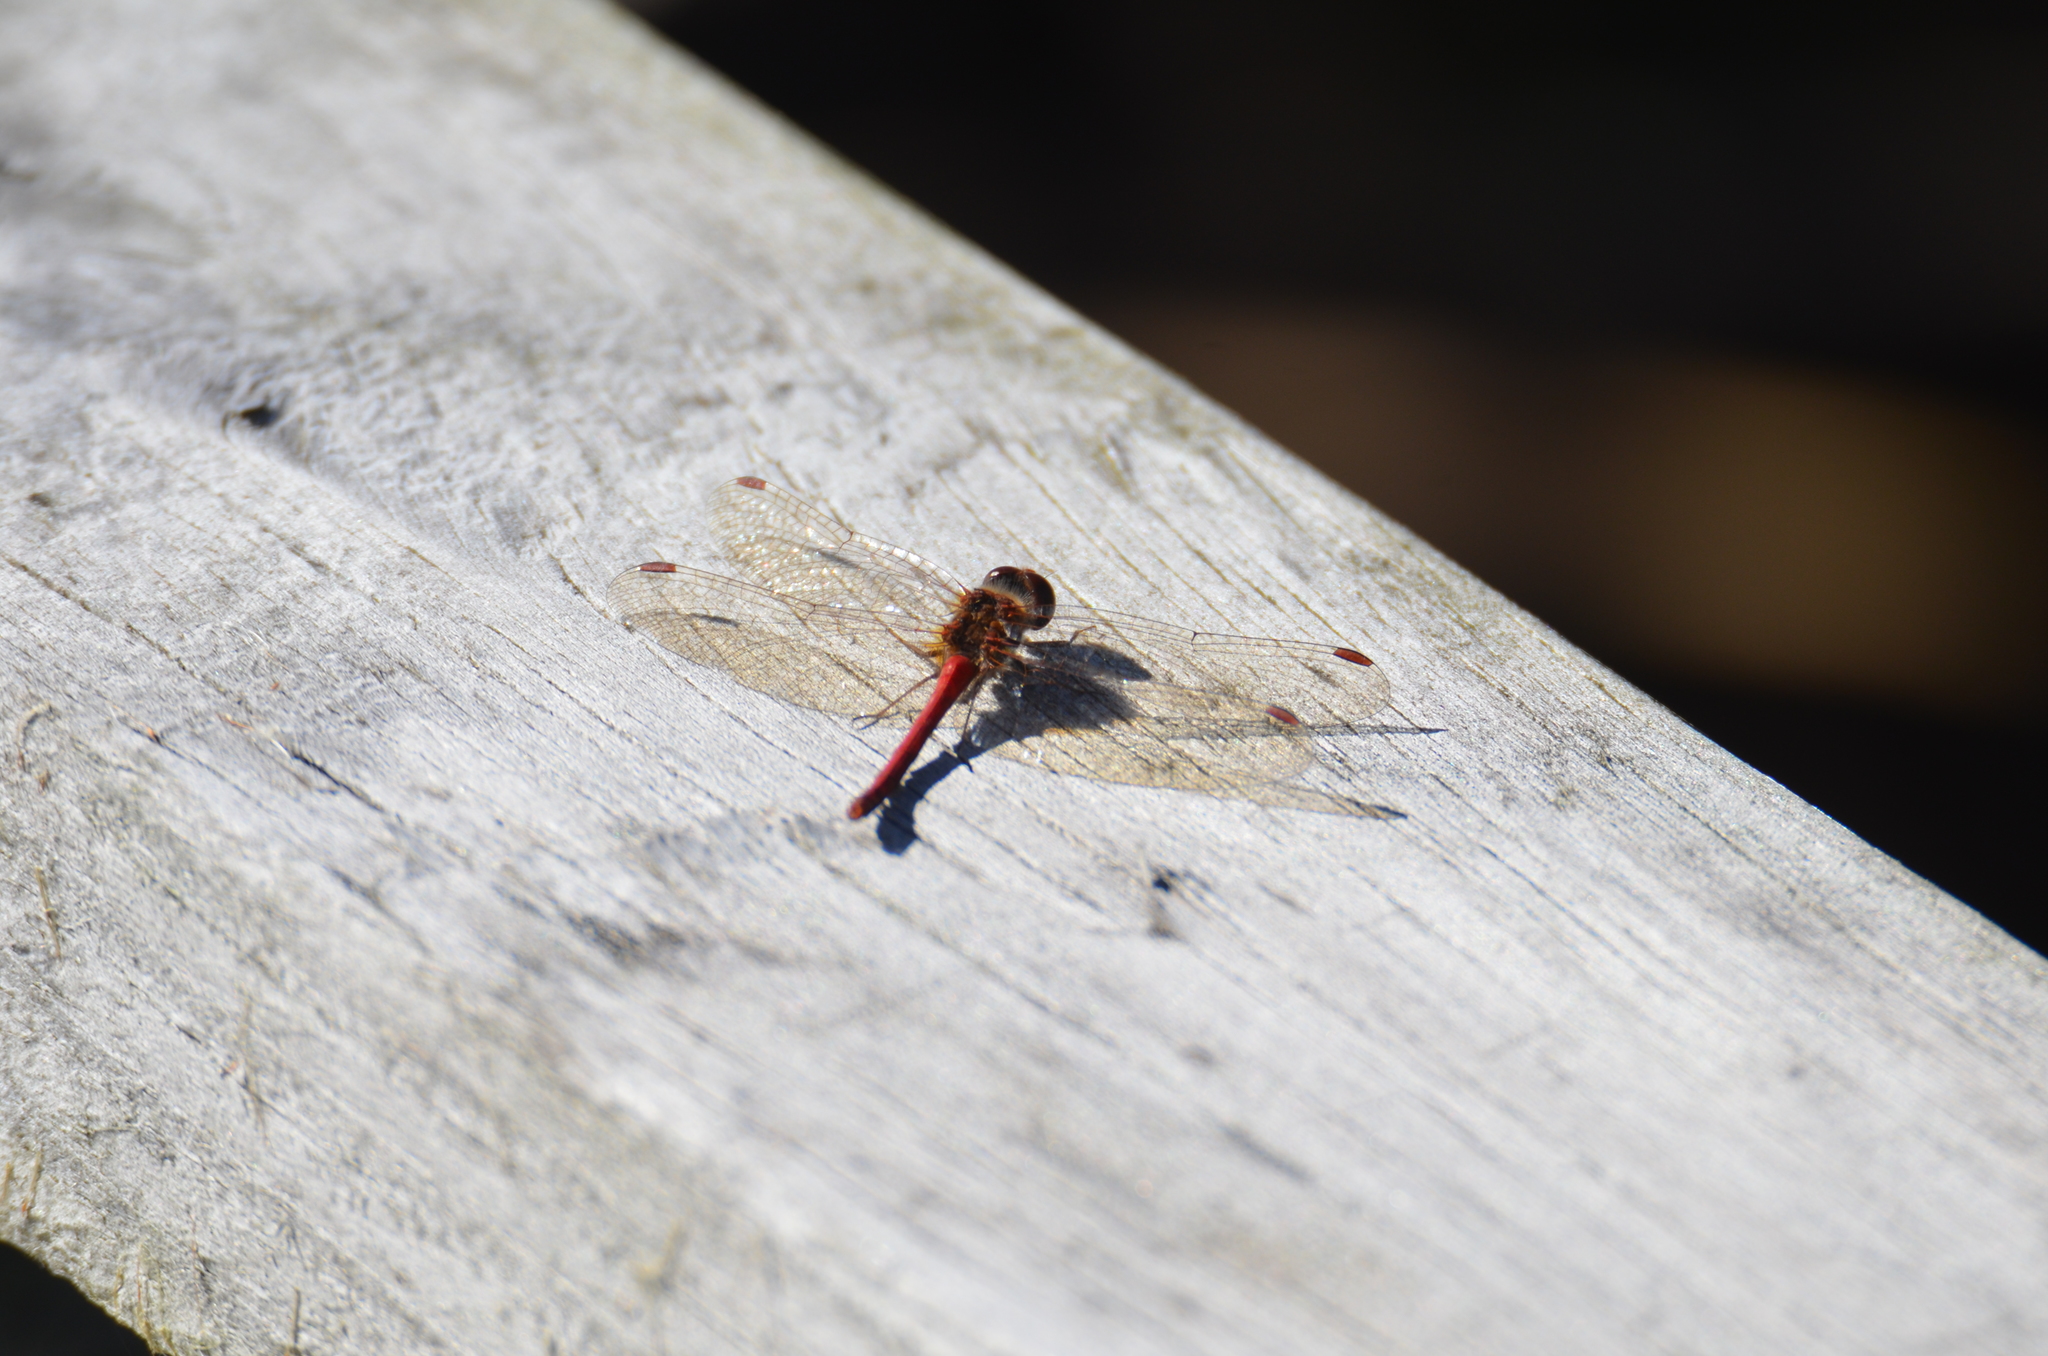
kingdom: Animalia
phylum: Arthropoda
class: Insecta
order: Odonata
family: Libellulidae
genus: Sympetrum
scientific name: Sympetrum vicinum
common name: Autumn meadowhawk
